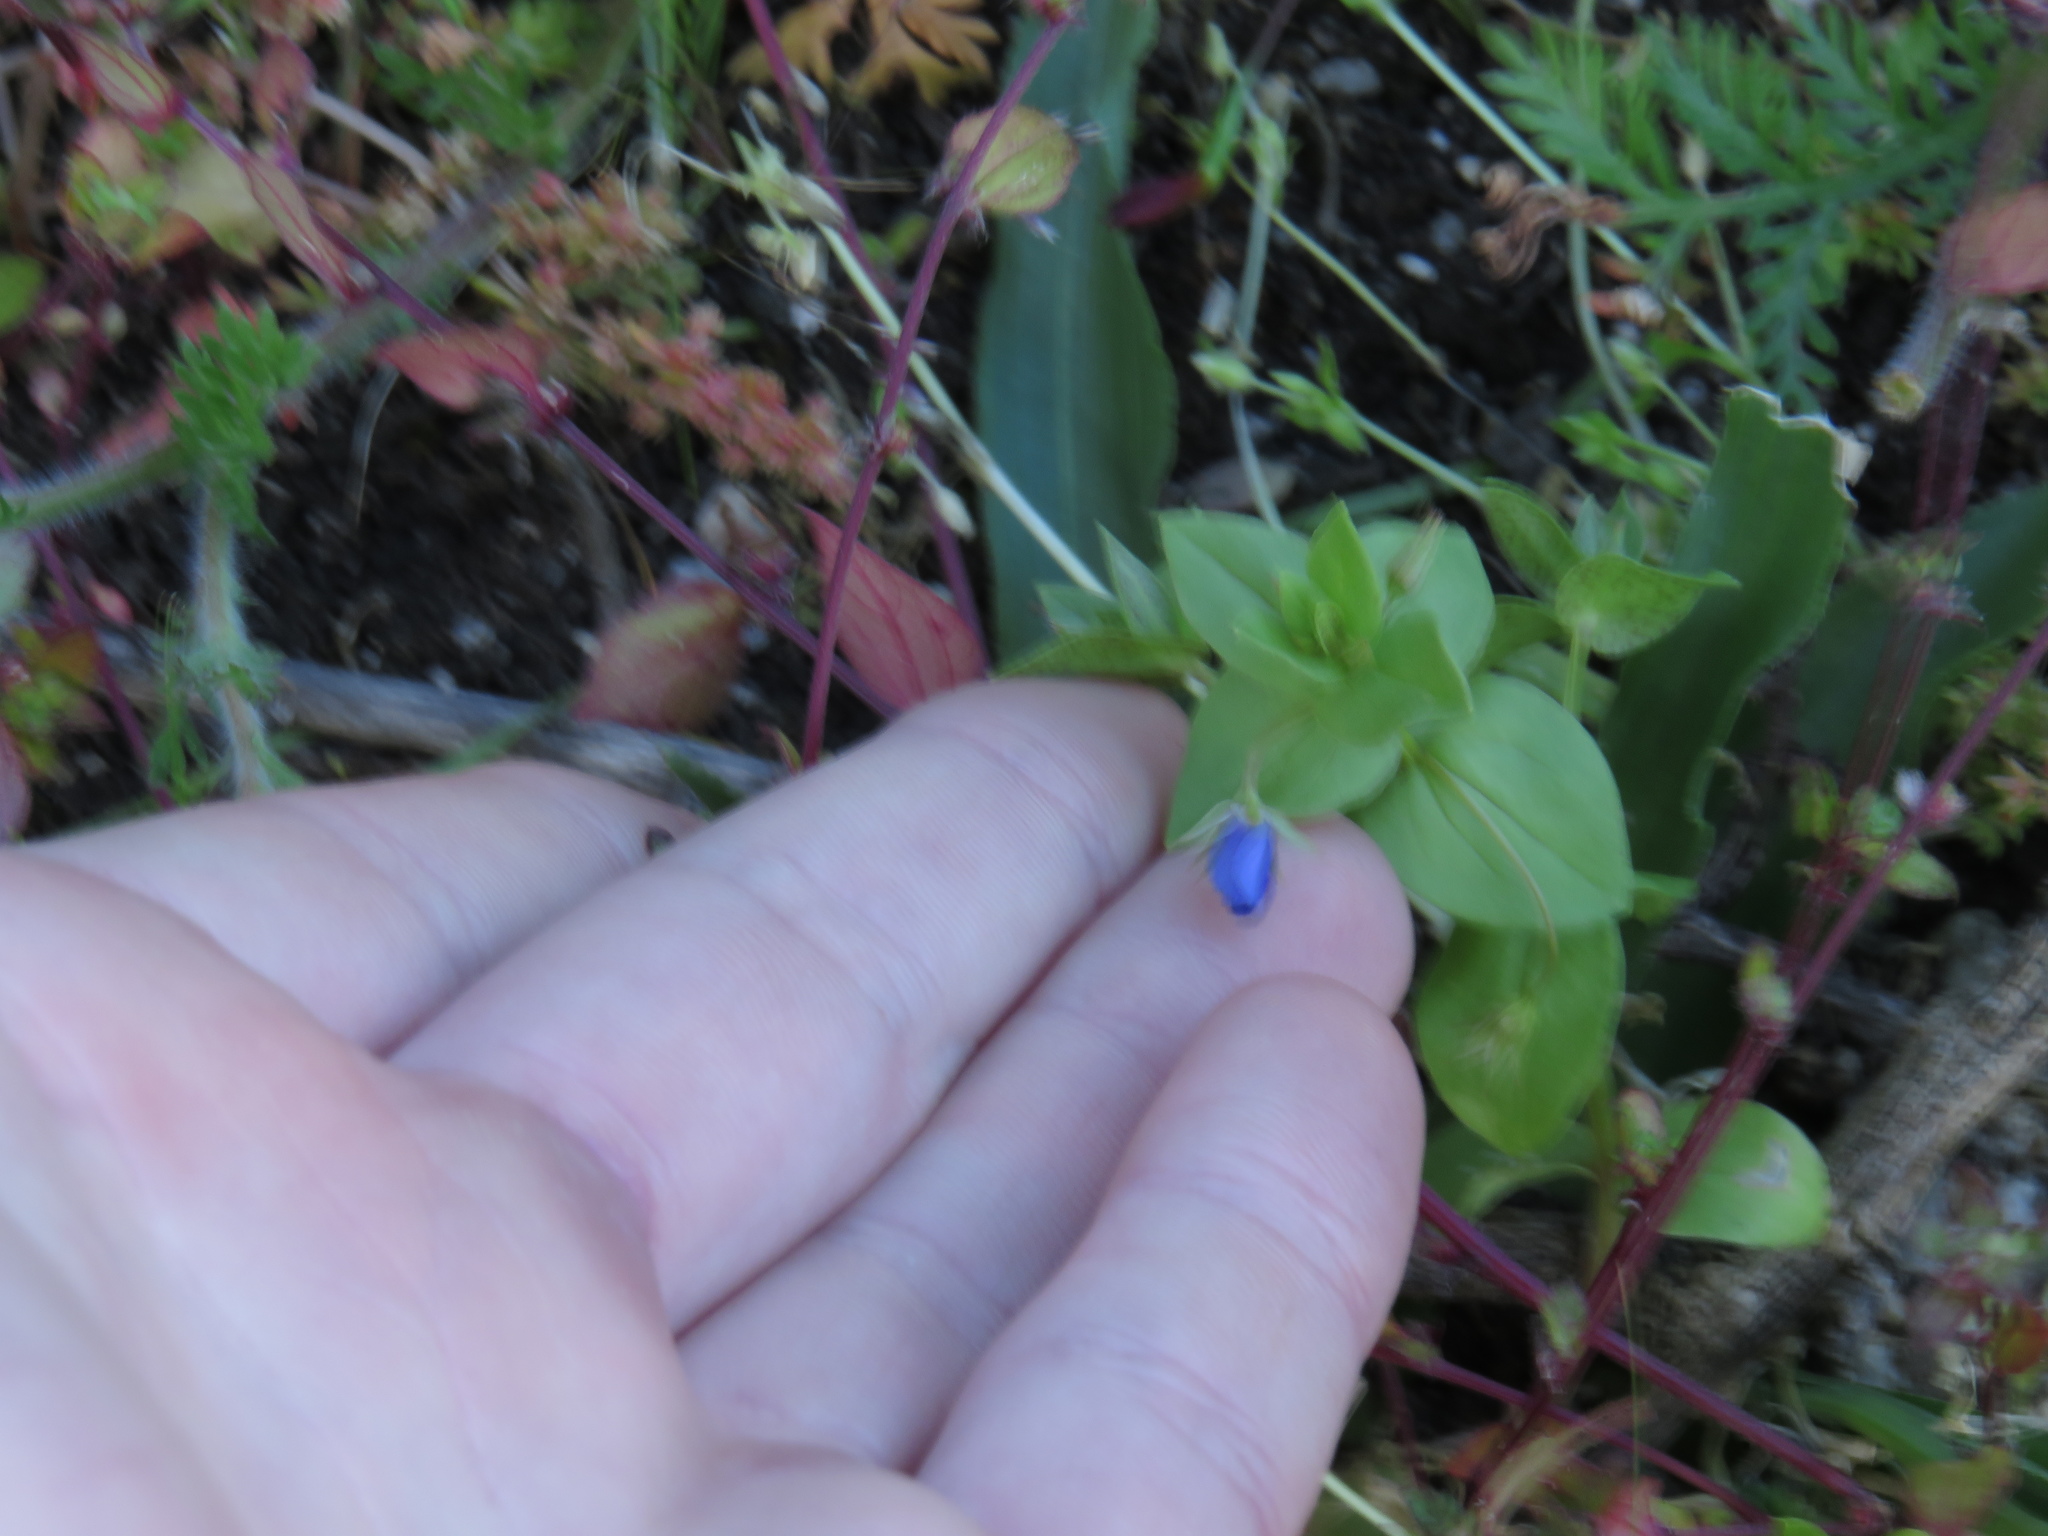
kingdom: Plantae
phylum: Tracheophyta
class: Magnoliopsida
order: Ericales
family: Primulaceae
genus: Lysimachia
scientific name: Lysimachia loeflingii
